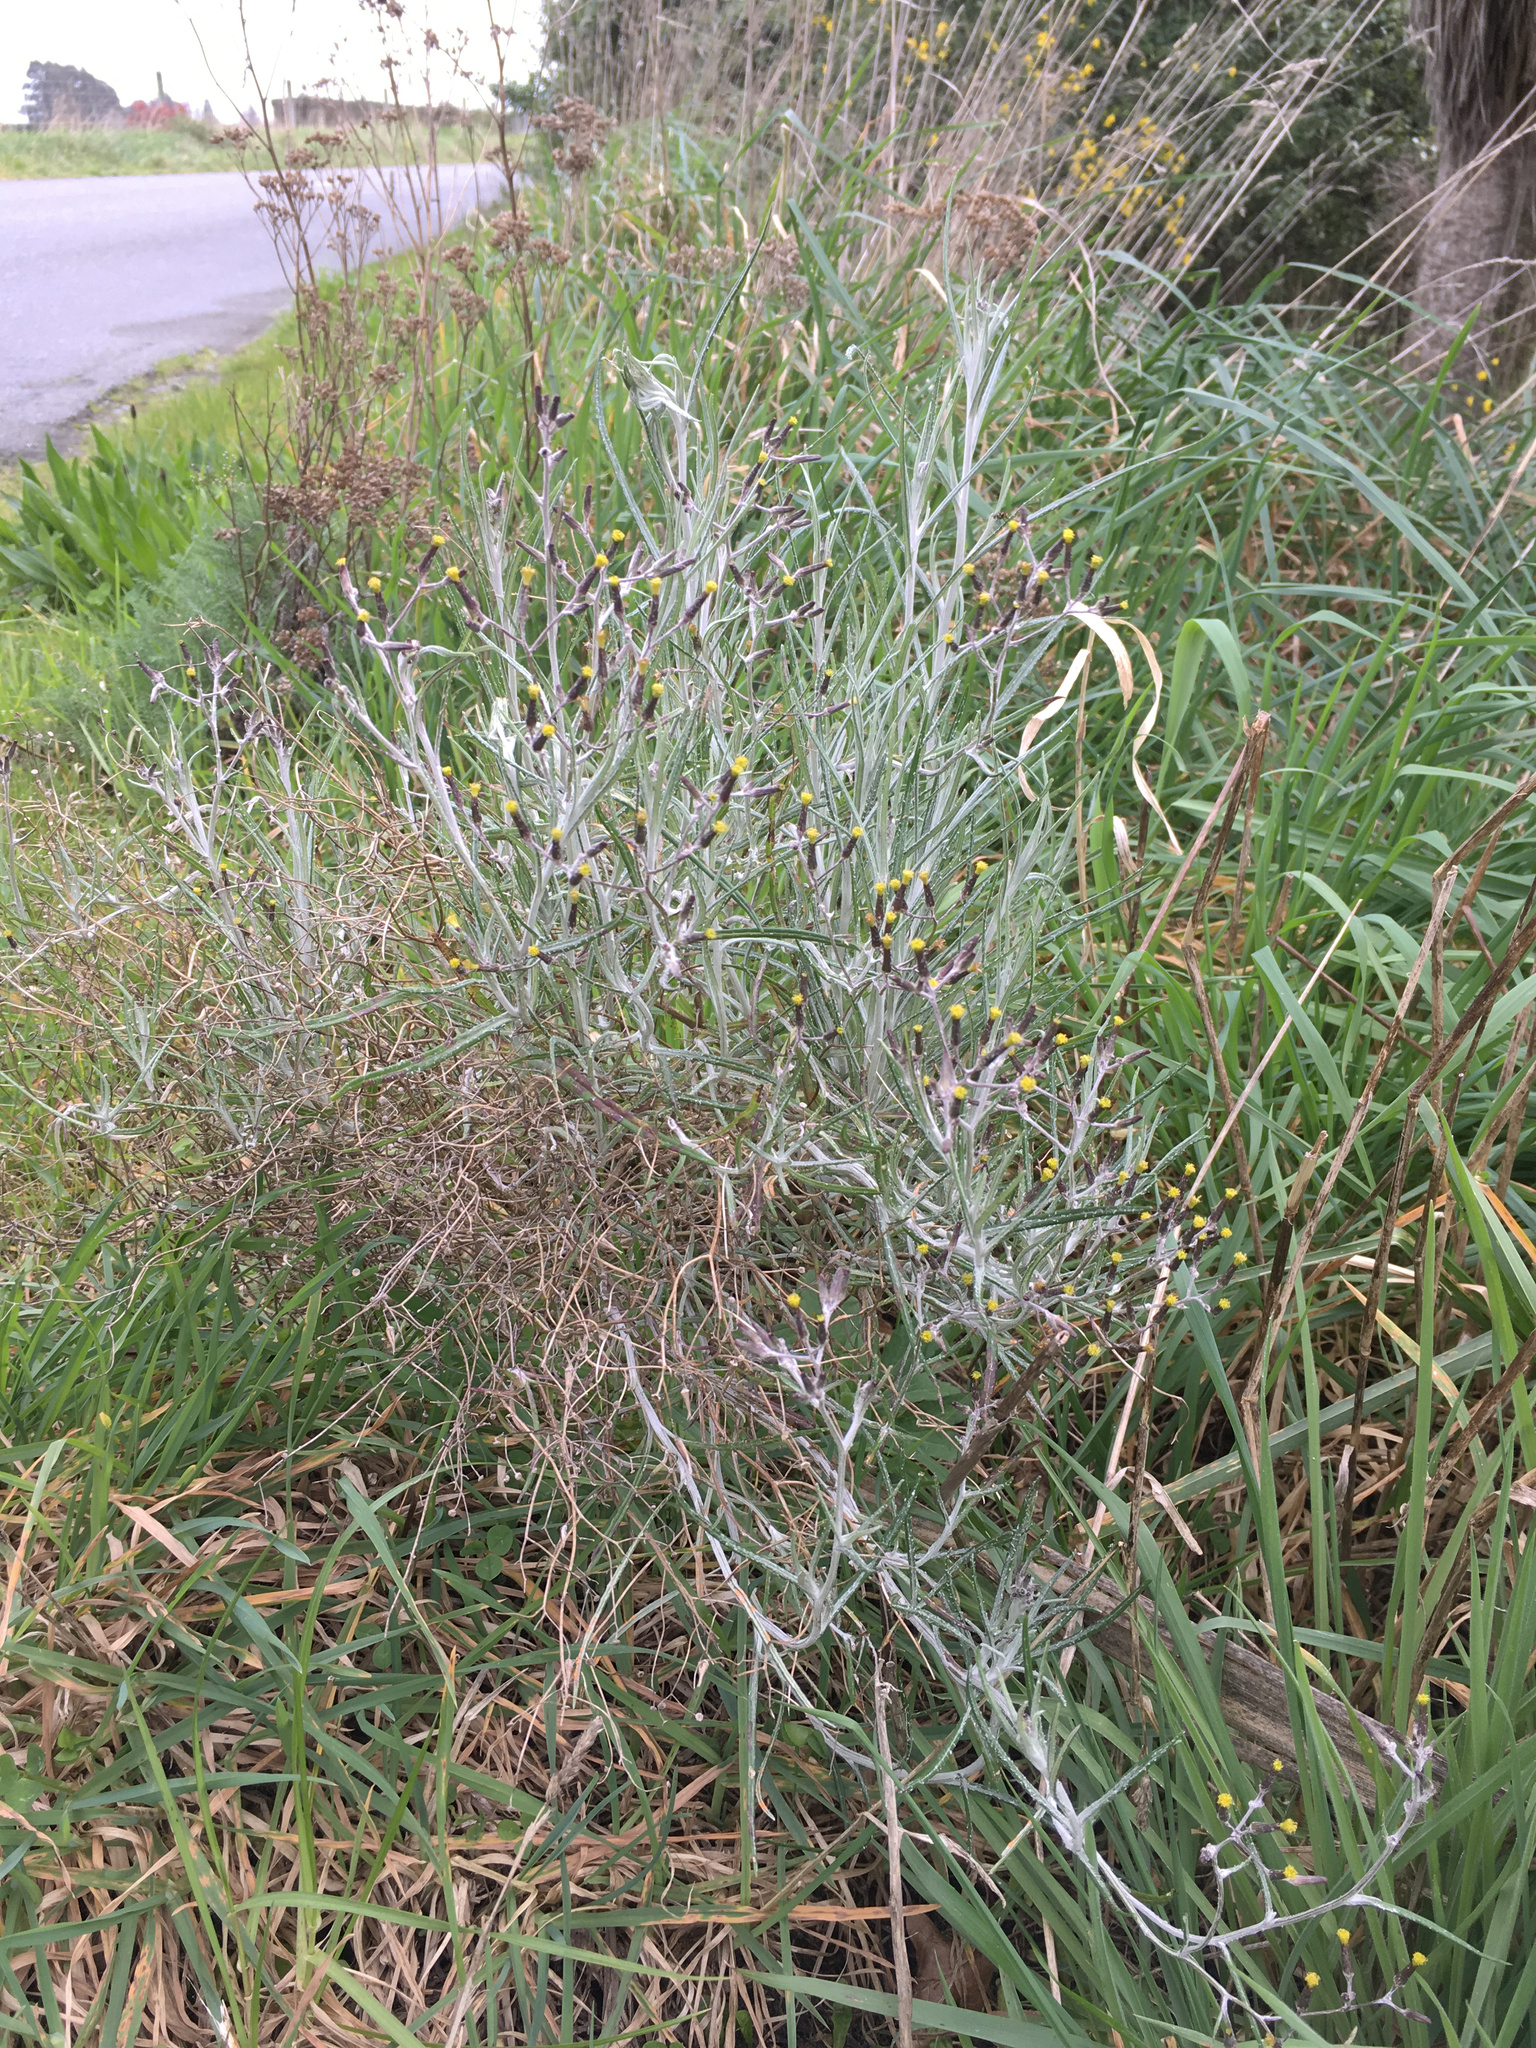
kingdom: Plantae
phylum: Tracheophyta
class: Magnoliopsida
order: Asterales
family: Asteraceae
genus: Senecio
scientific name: Senecio quadridentatus
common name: Cotton fireweed
